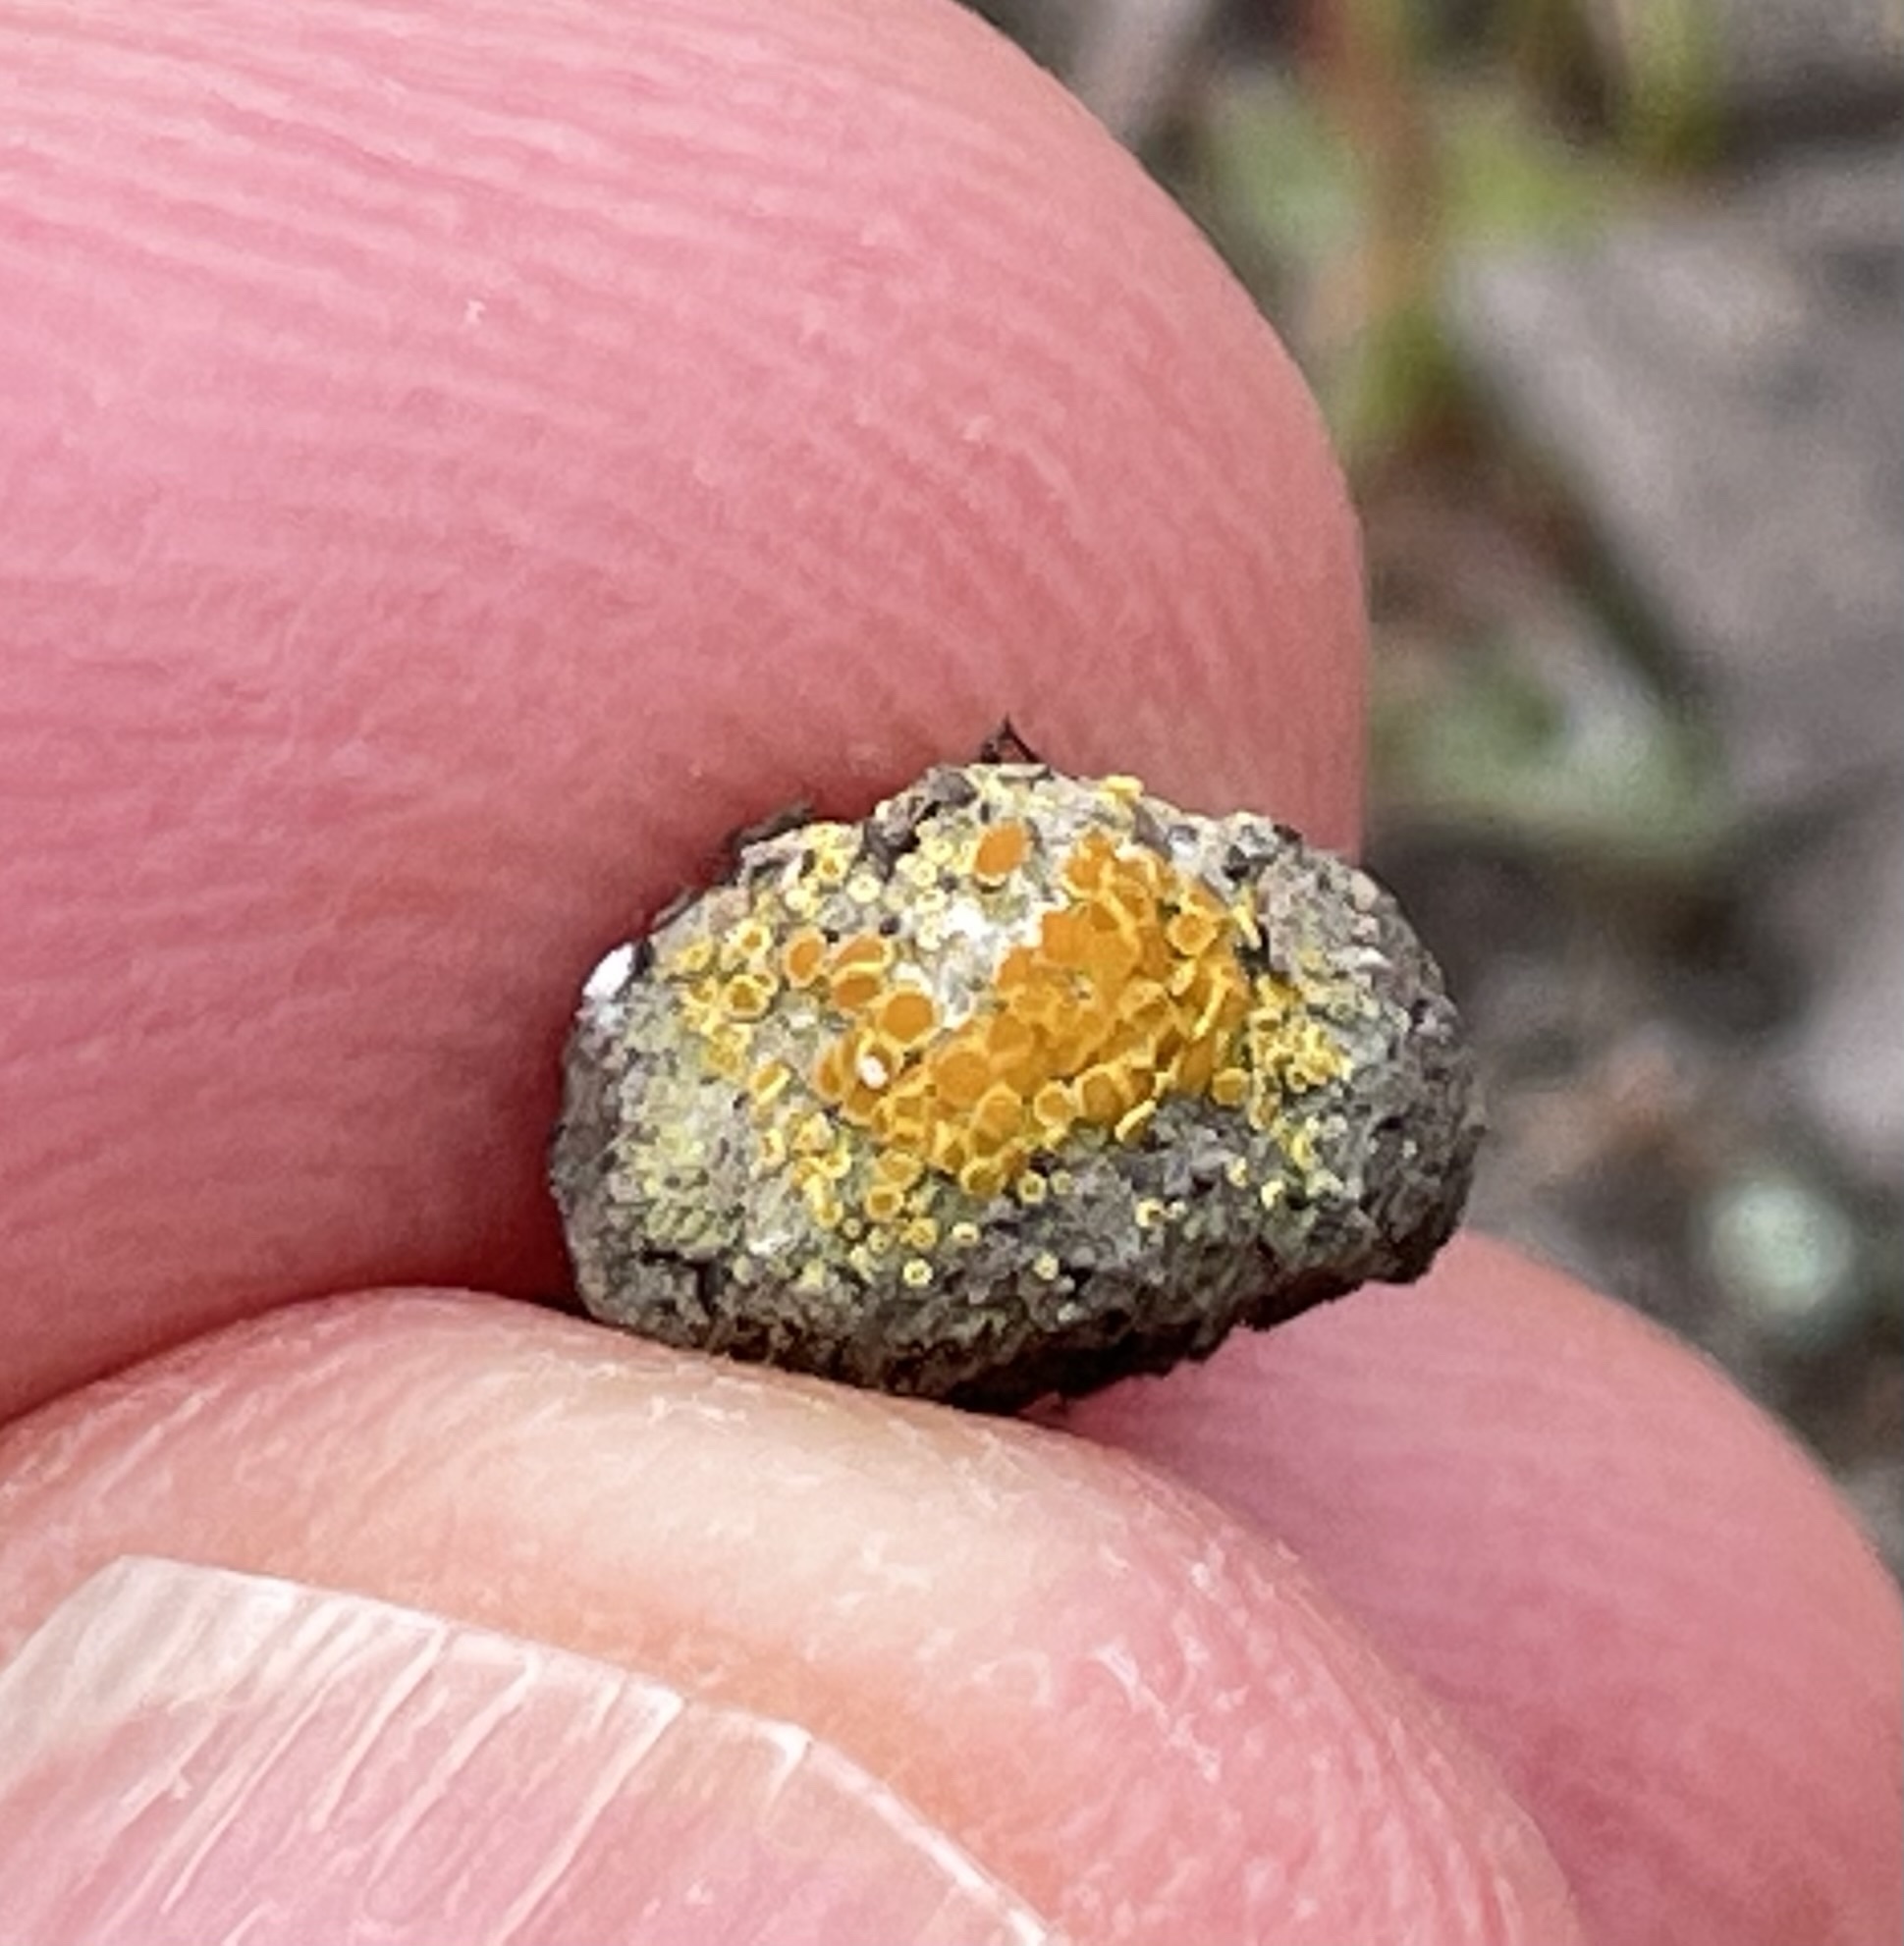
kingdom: Fungi
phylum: Ascomycota
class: Lecanoromycetes
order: Teloschistales
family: Teloschistaceae
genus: Caloplaca
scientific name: Caloplaca subpyracella
